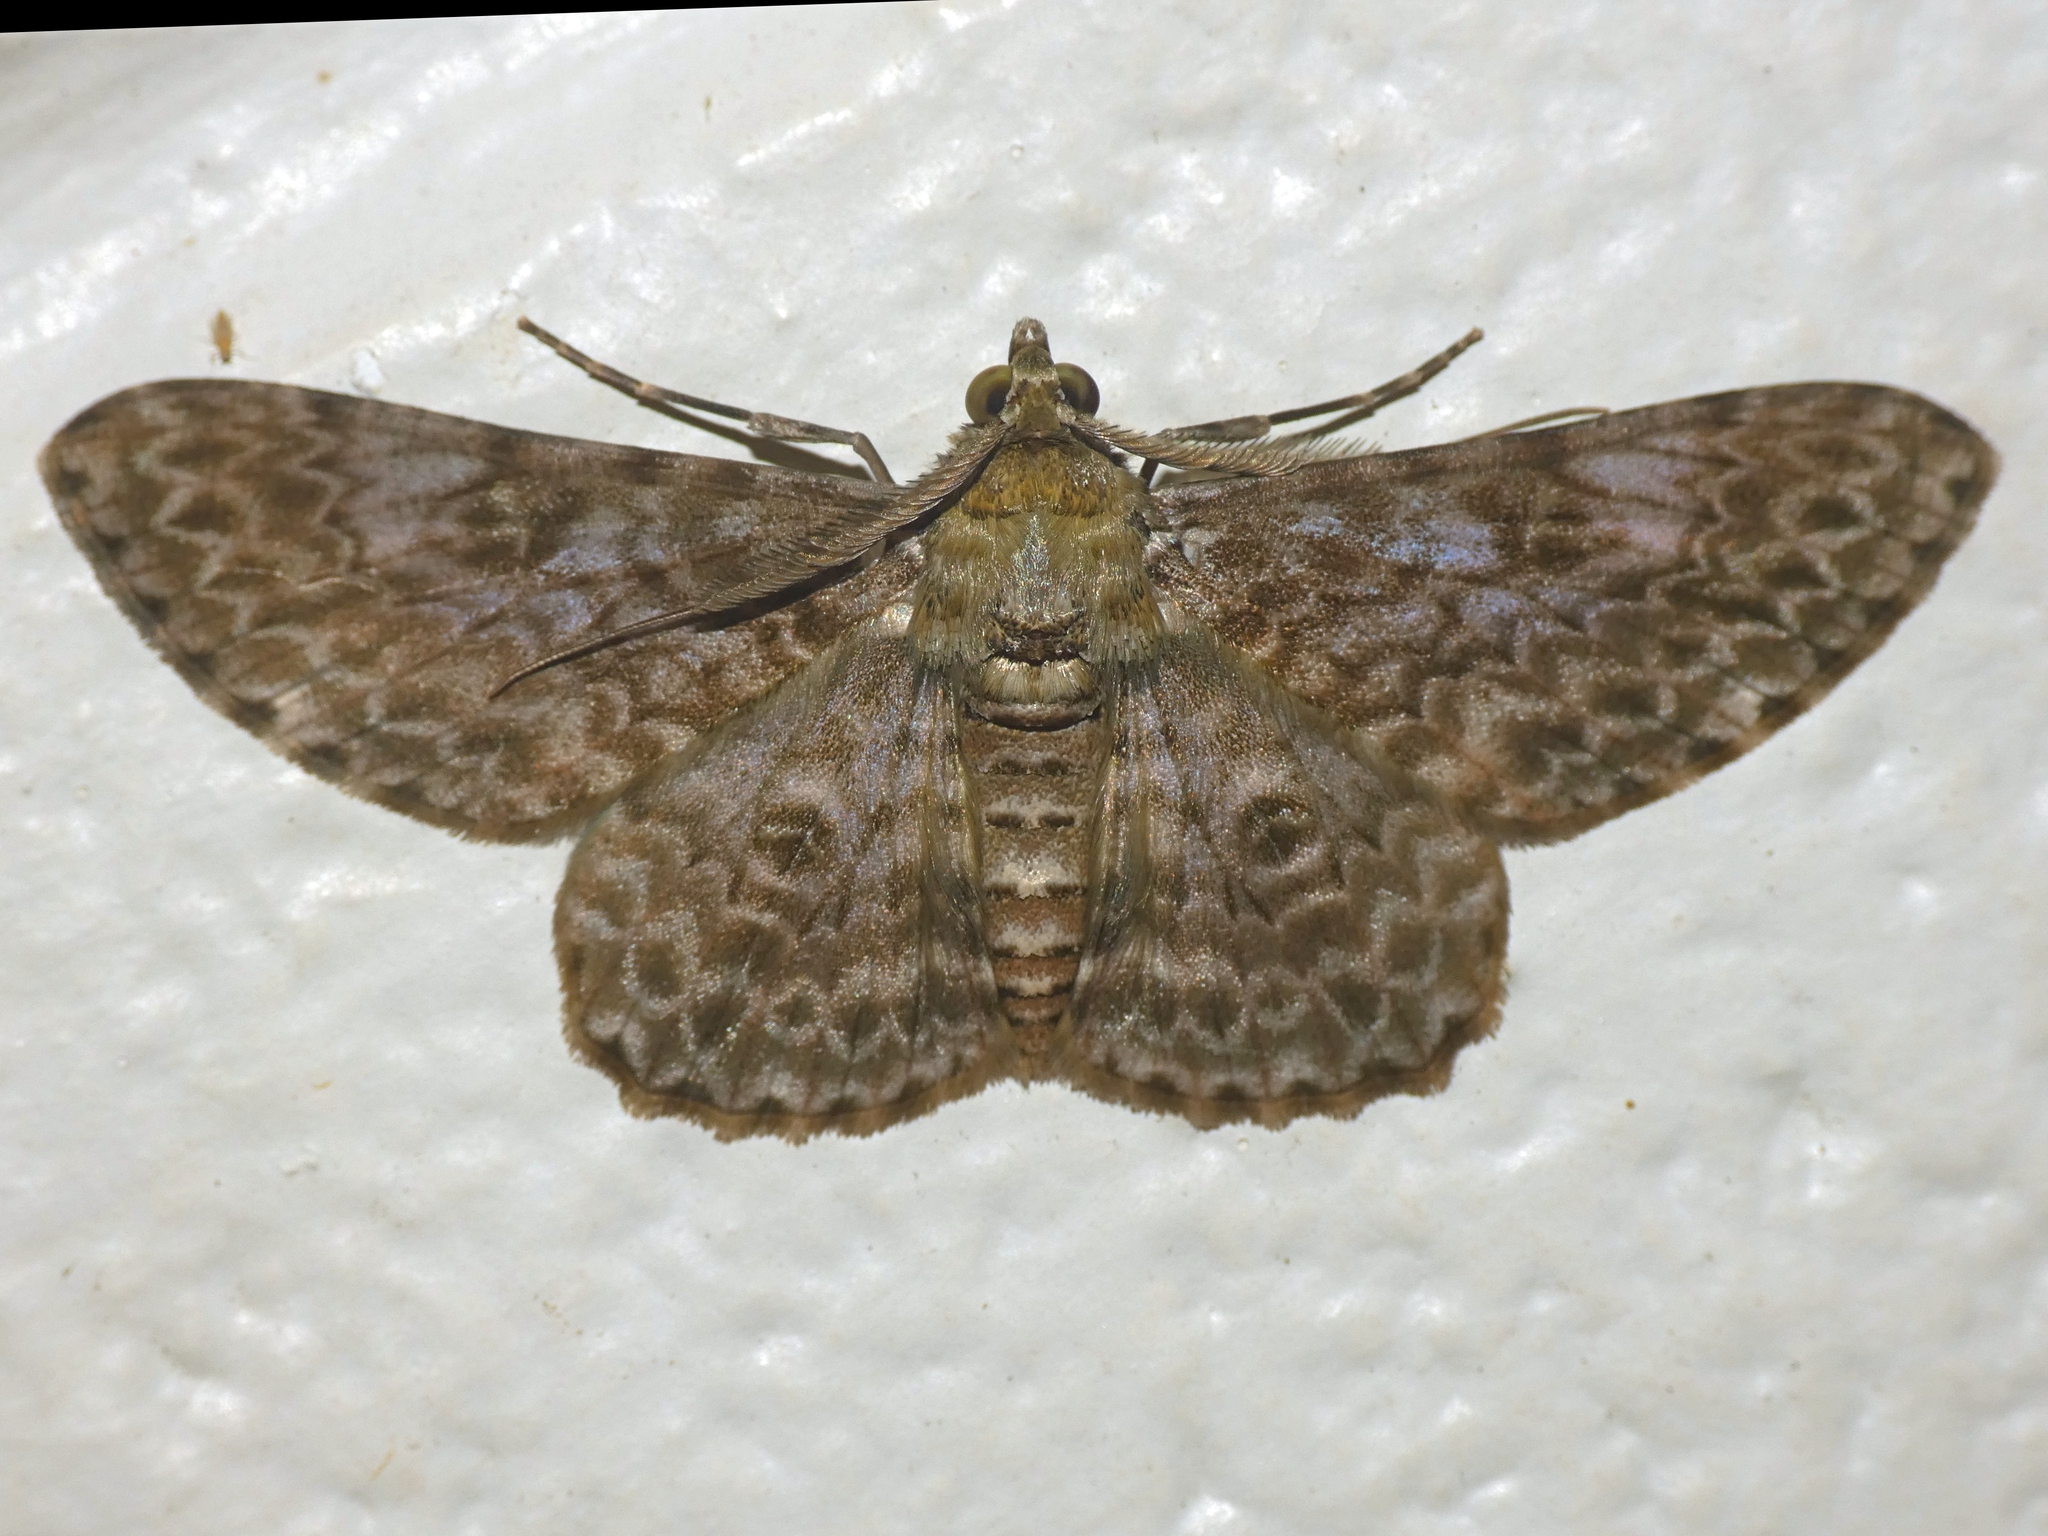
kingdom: Animalia
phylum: Arthropoda
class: Insecta
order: Lepidoptera
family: Geometridae
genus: Cleora
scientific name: Cleora sabulata
